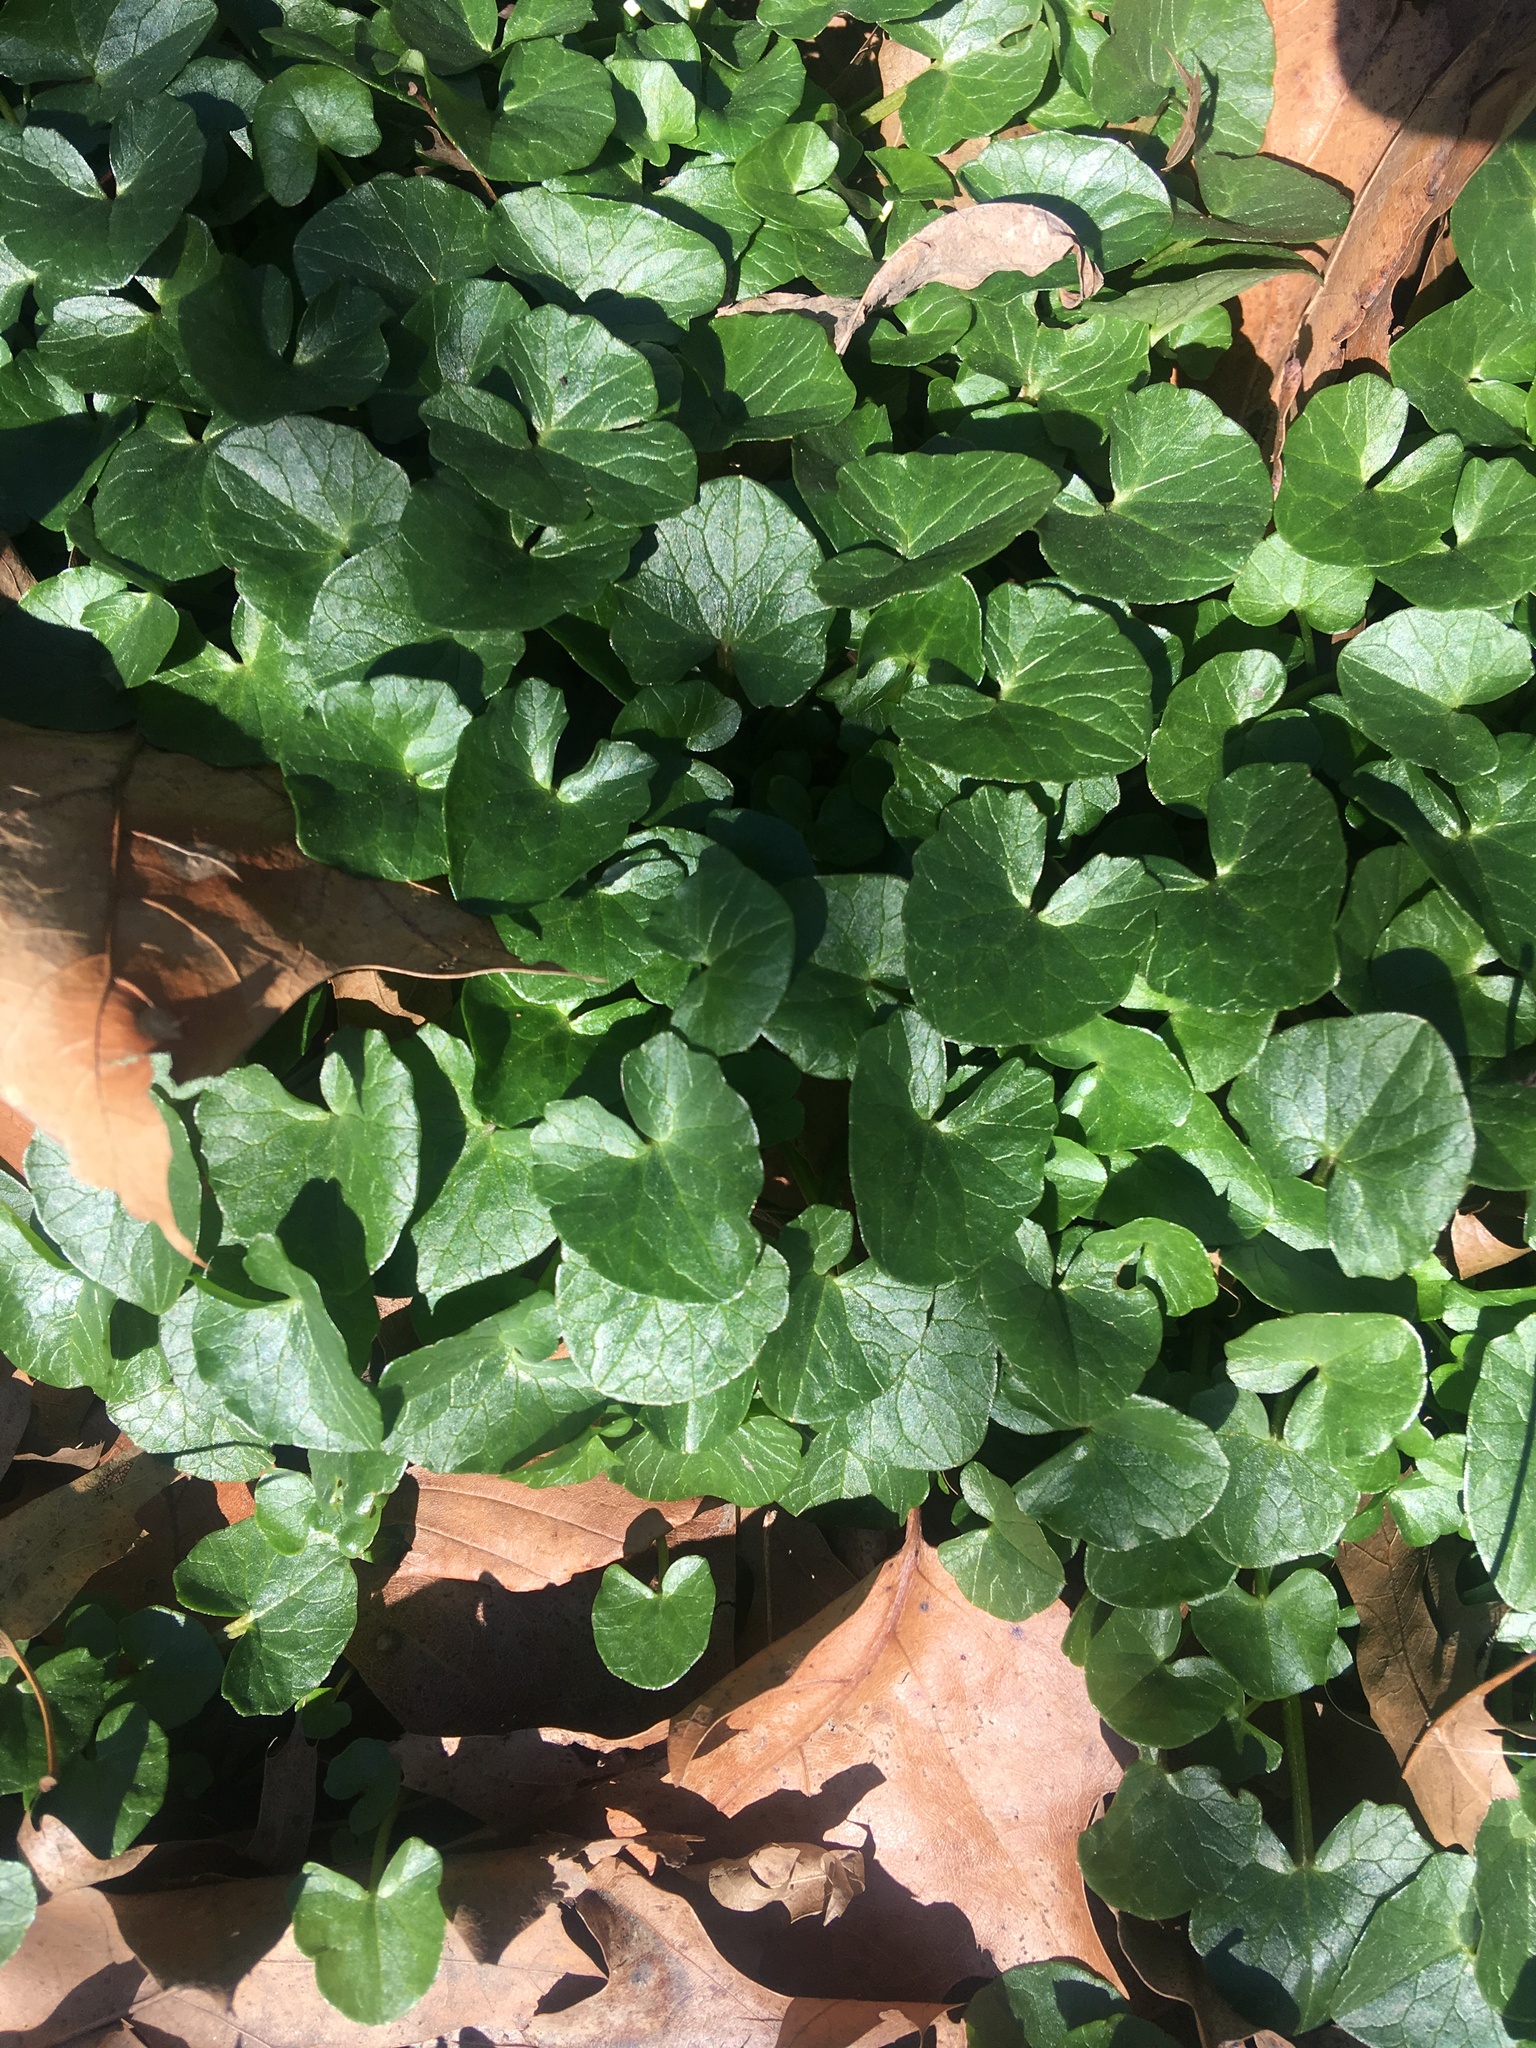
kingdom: Plantae
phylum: Tracheophyta
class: Magnoliopsida
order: Ranunculales
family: Ranunculaceae
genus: Ficaria
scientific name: Ficaria verna
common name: Lesser celandine
